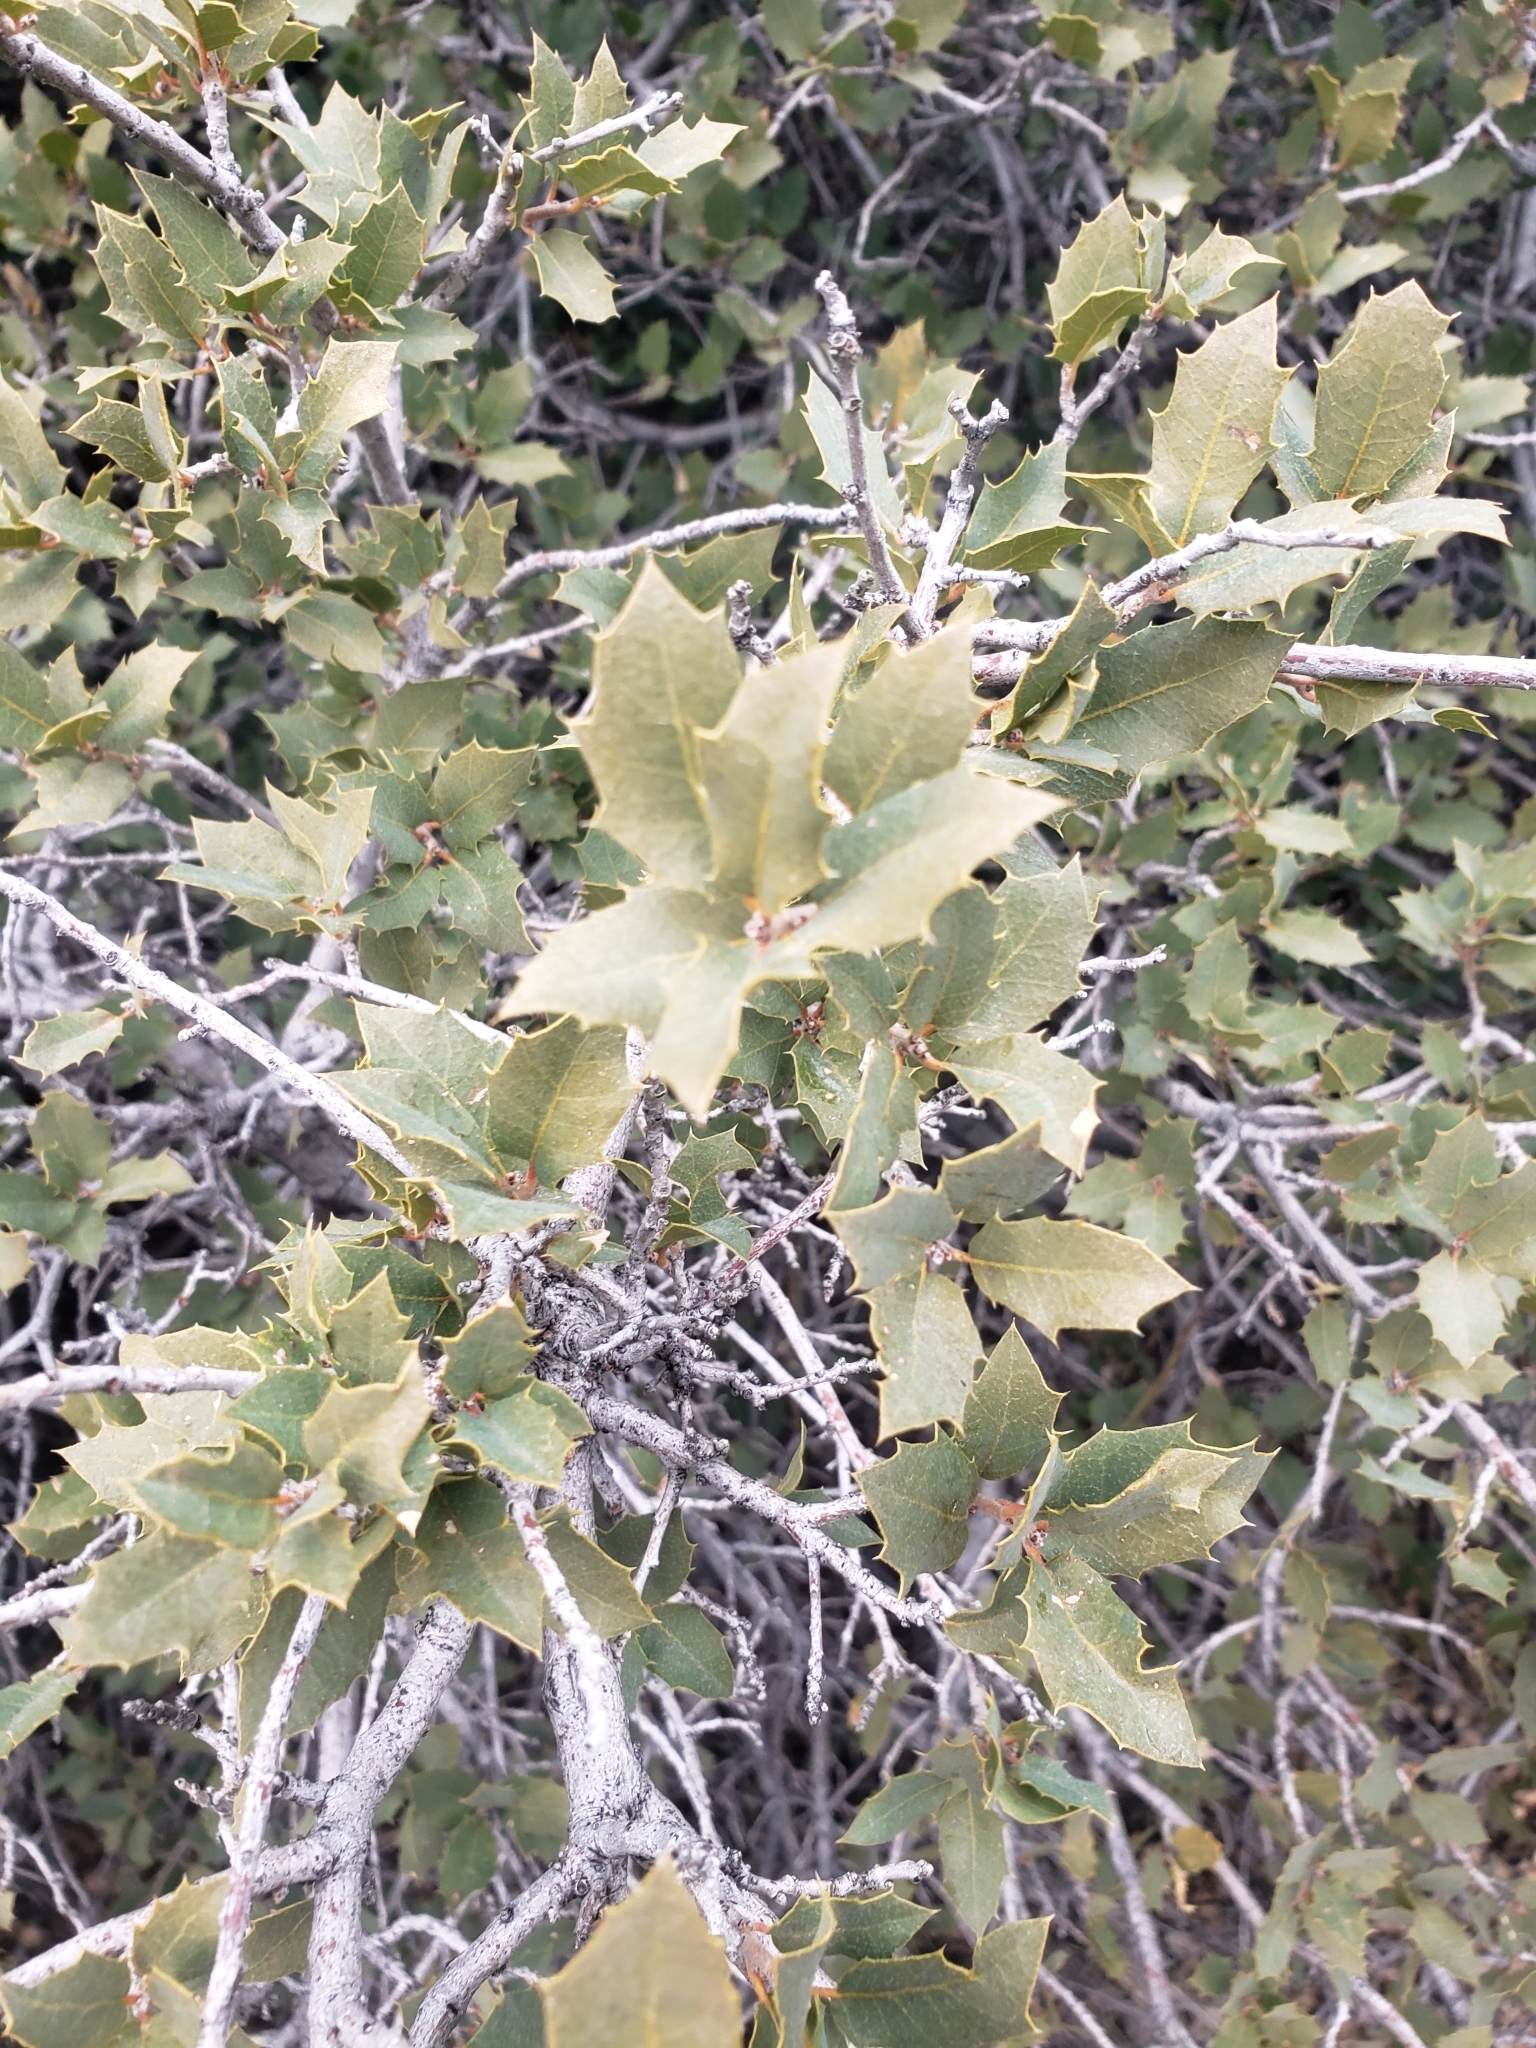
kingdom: Plantae
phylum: Tracheophyta
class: Magnoliopsida
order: Fagales
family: Fagaceae
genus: Quercus
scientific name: Quercus turbinella
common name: Sonoran scrub oak
